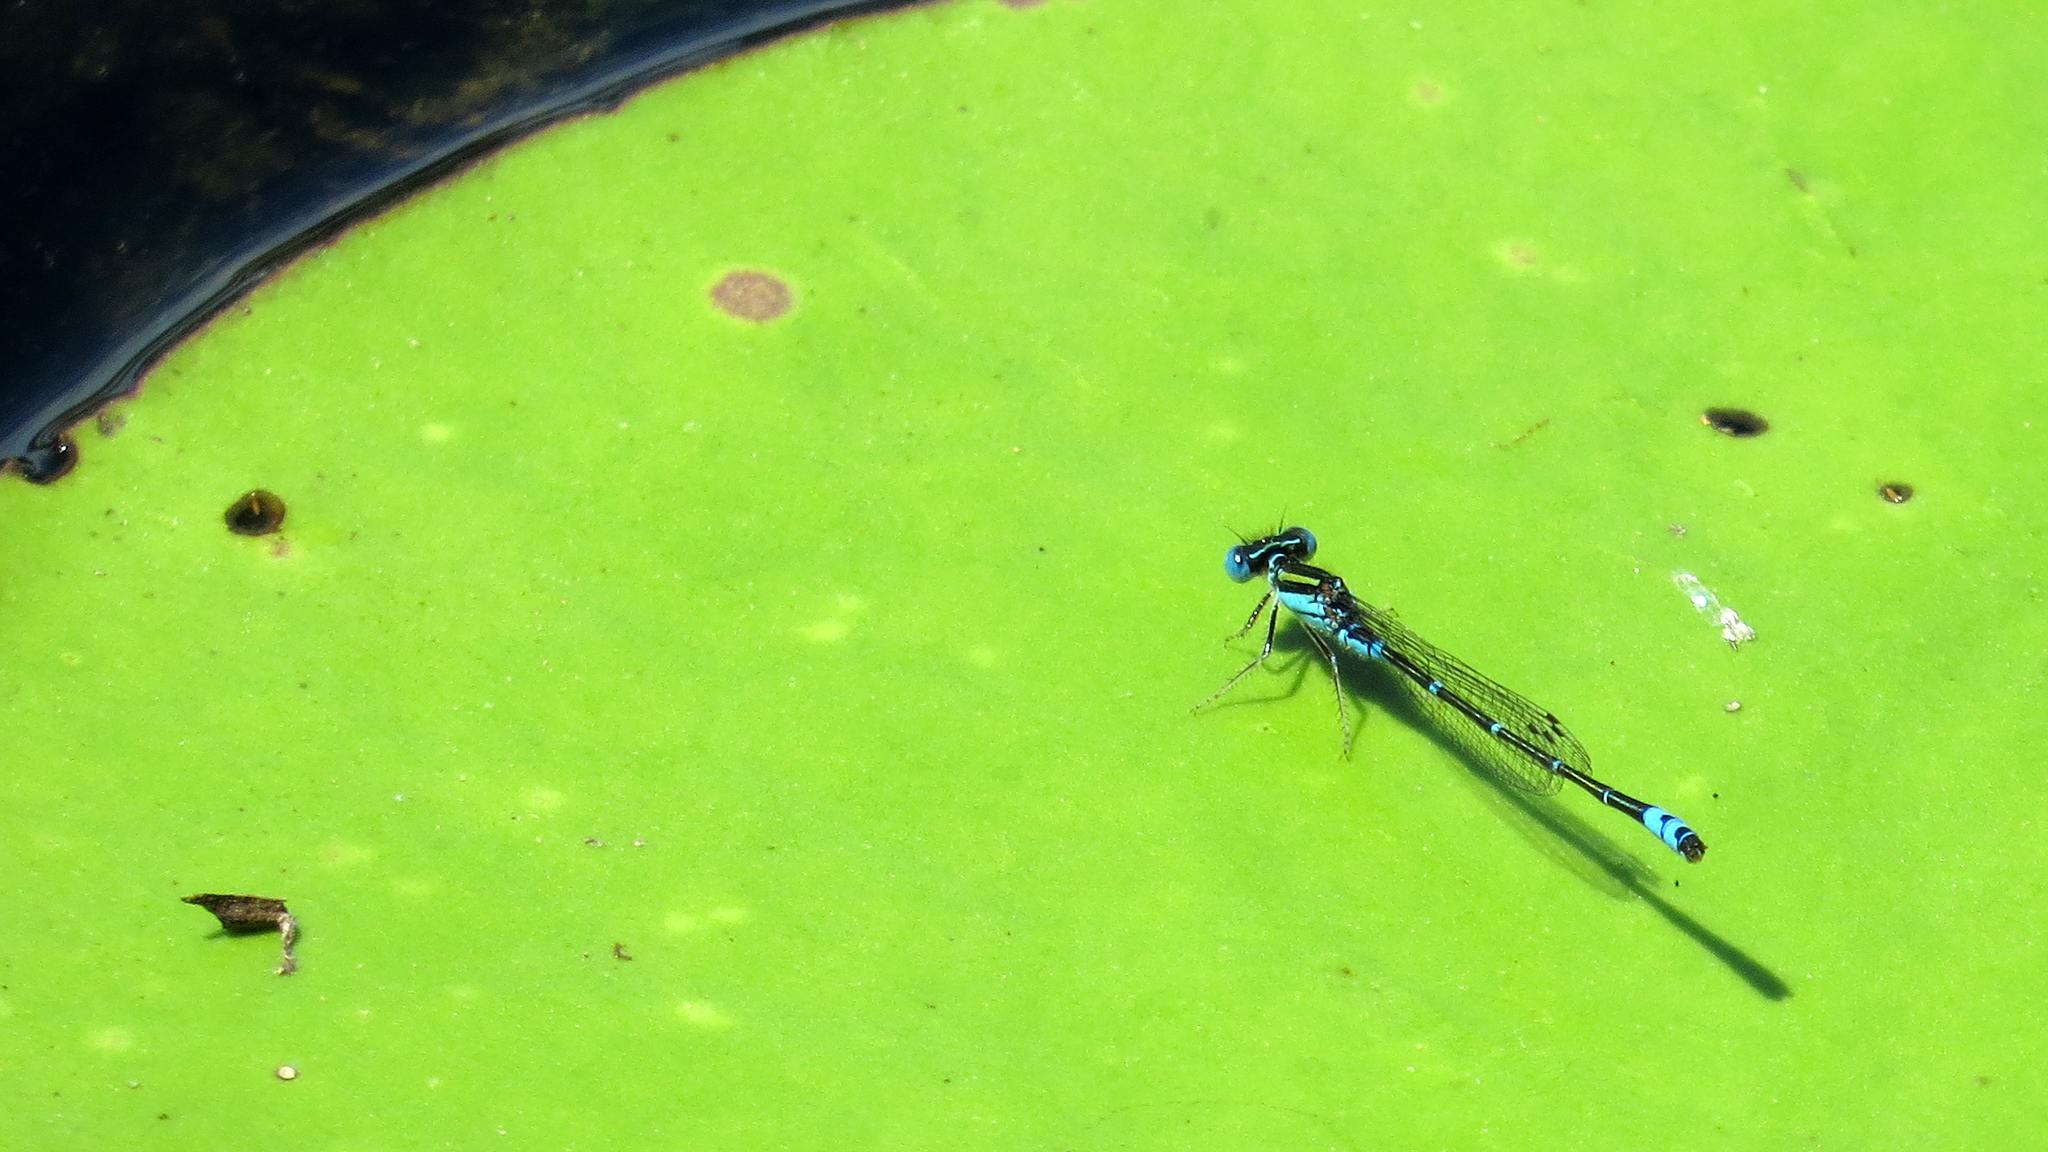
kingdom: Animalia
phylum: Arthropoda
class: Insecta
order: Odonata
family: Coenagrionidae
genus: Austroagrion
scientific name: Austroagrion watsoni
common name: Eastern billabongfly
